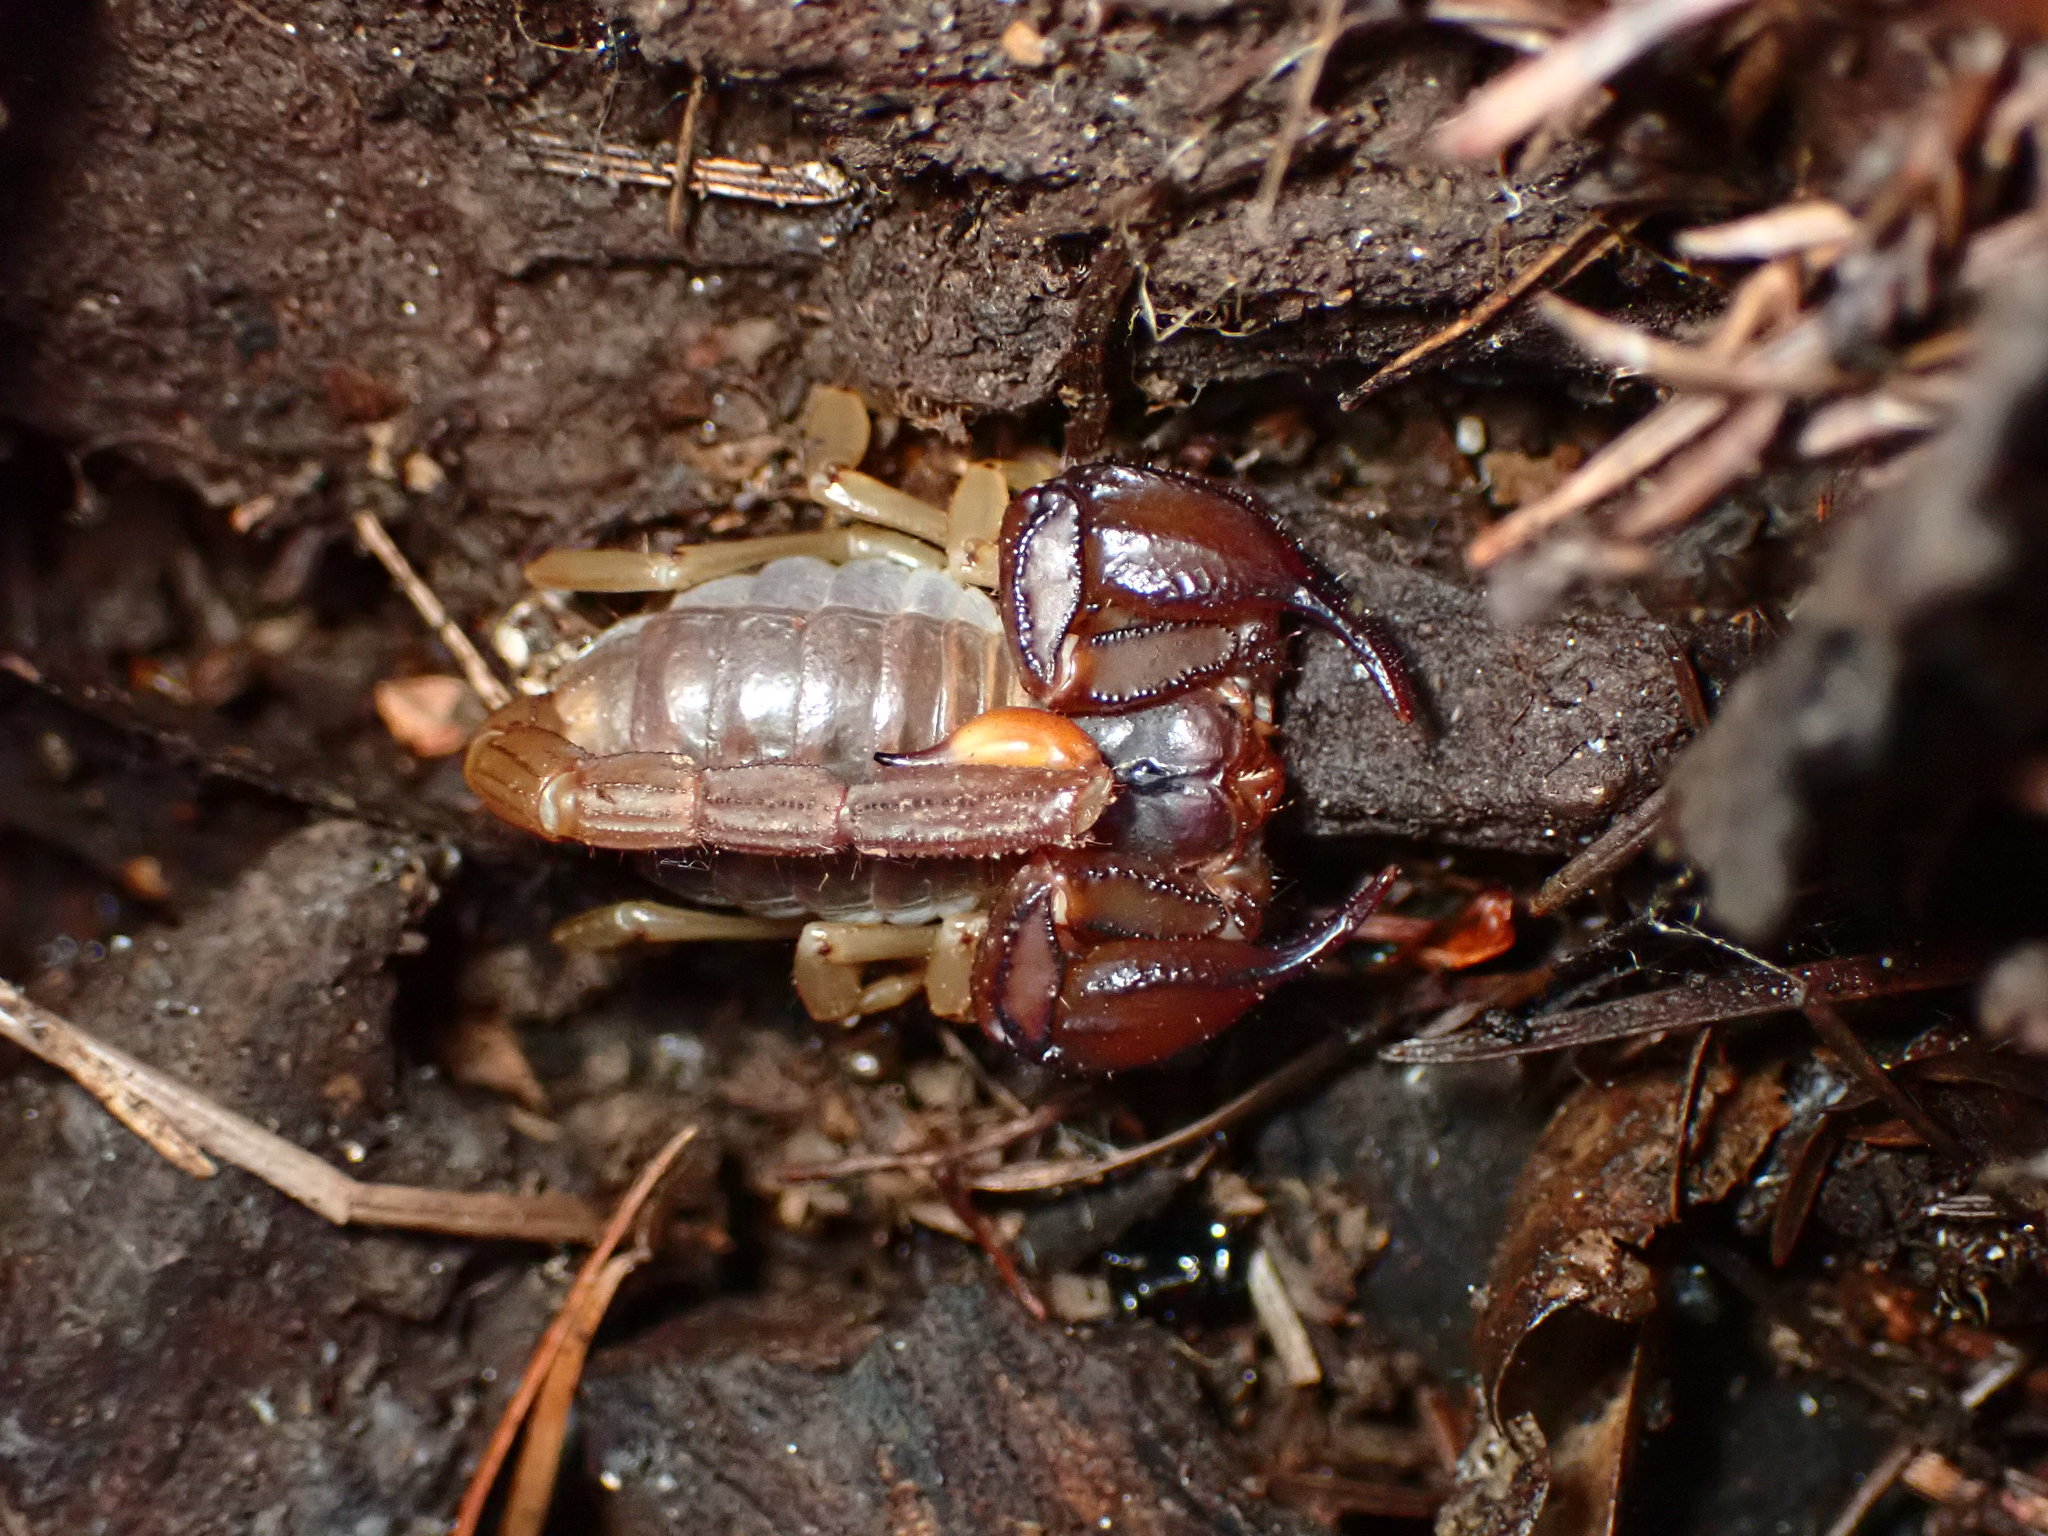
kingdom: Animalia
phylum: Arthropoda
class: Arachnida
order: Scorpiones
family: Chactidae
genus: Uroctonus
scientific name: Uroctonus mordax
